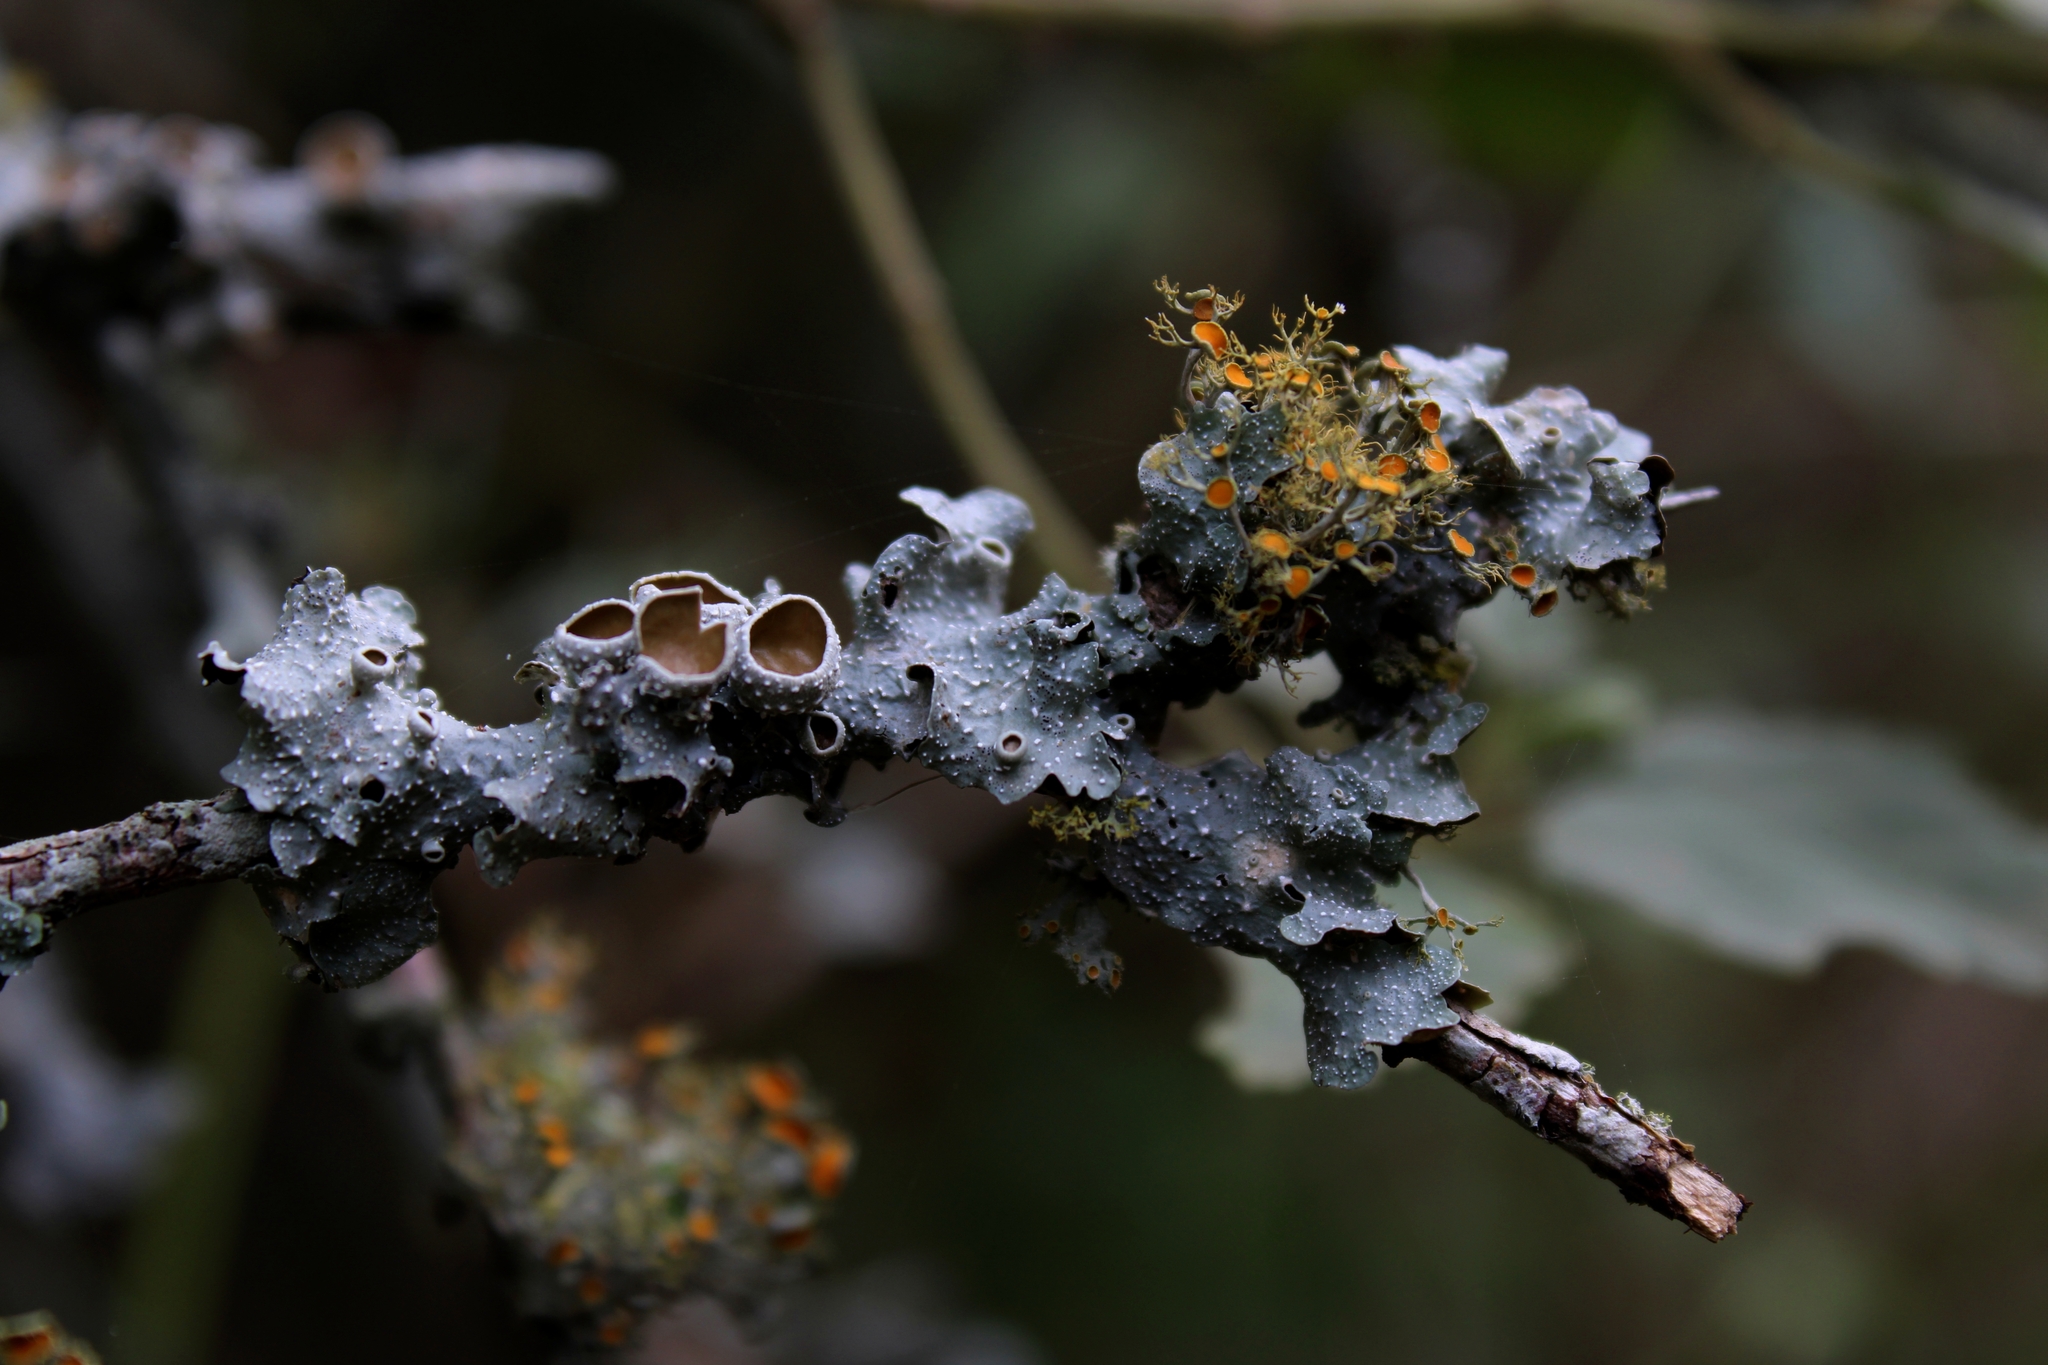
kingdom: Fungi
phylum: Ascomycota
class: Lecanoromycetes
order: Teloschistales
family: Teloschistaceae
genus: Niorma
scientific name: Niorma chrysophthalma
